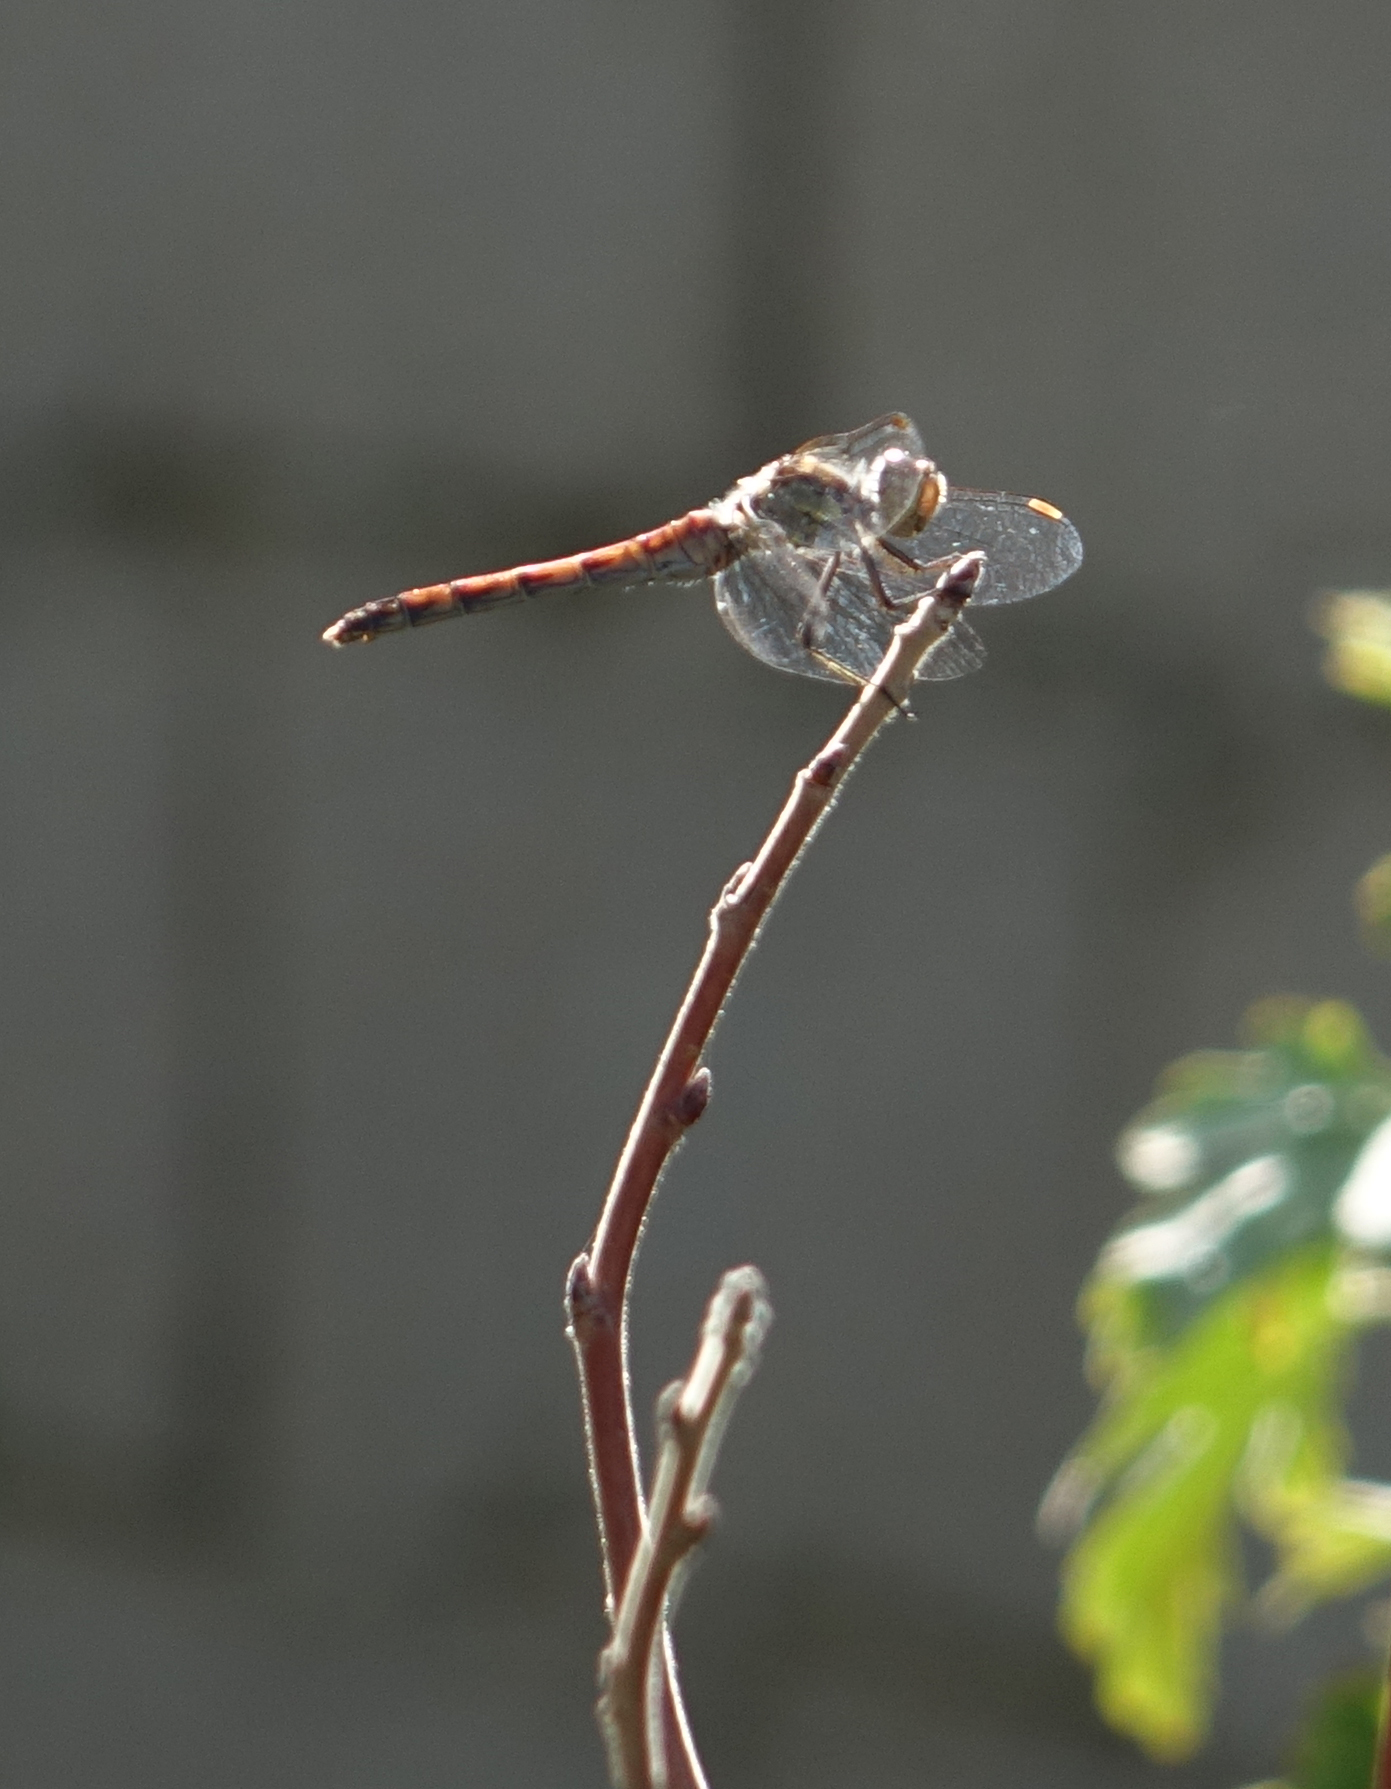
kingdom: Animalia
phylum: Arthropoda
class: Insecta
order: Odonata
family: Libellulidae
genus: Sympetrum
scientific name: Sympetrum striolatum
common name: Common darter
